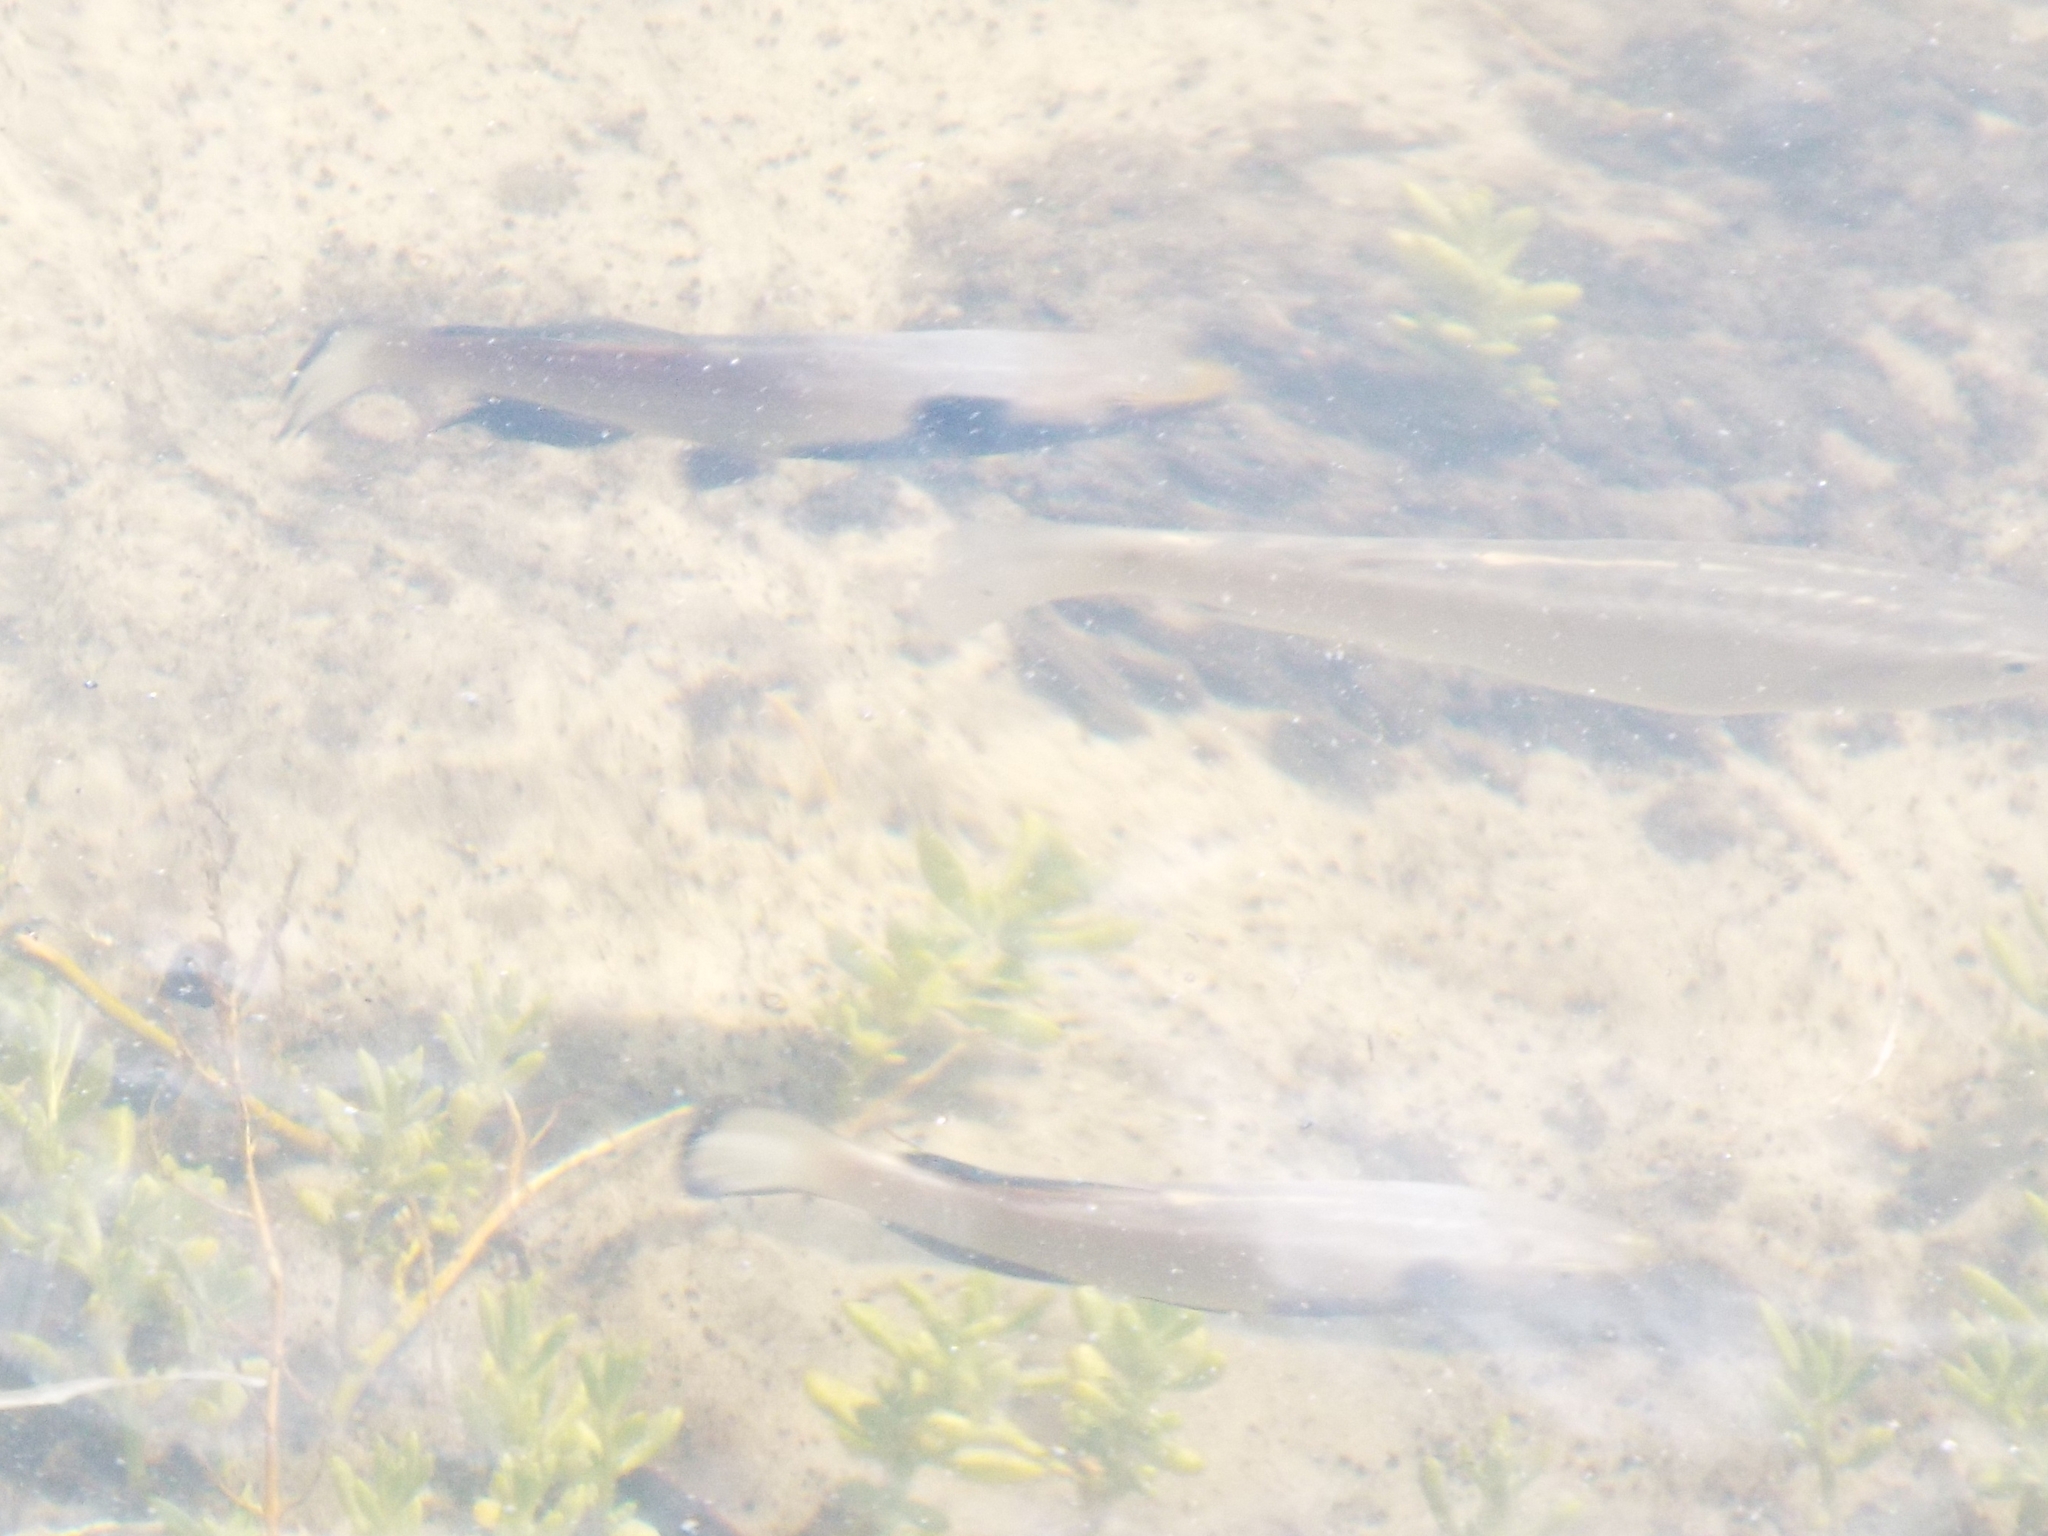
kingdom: Animalia
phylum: Chordata
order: Cyprinodontiformes
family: Fundulidae
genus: Fundulus
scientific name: Fundulus similis
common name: Longnose killifish
